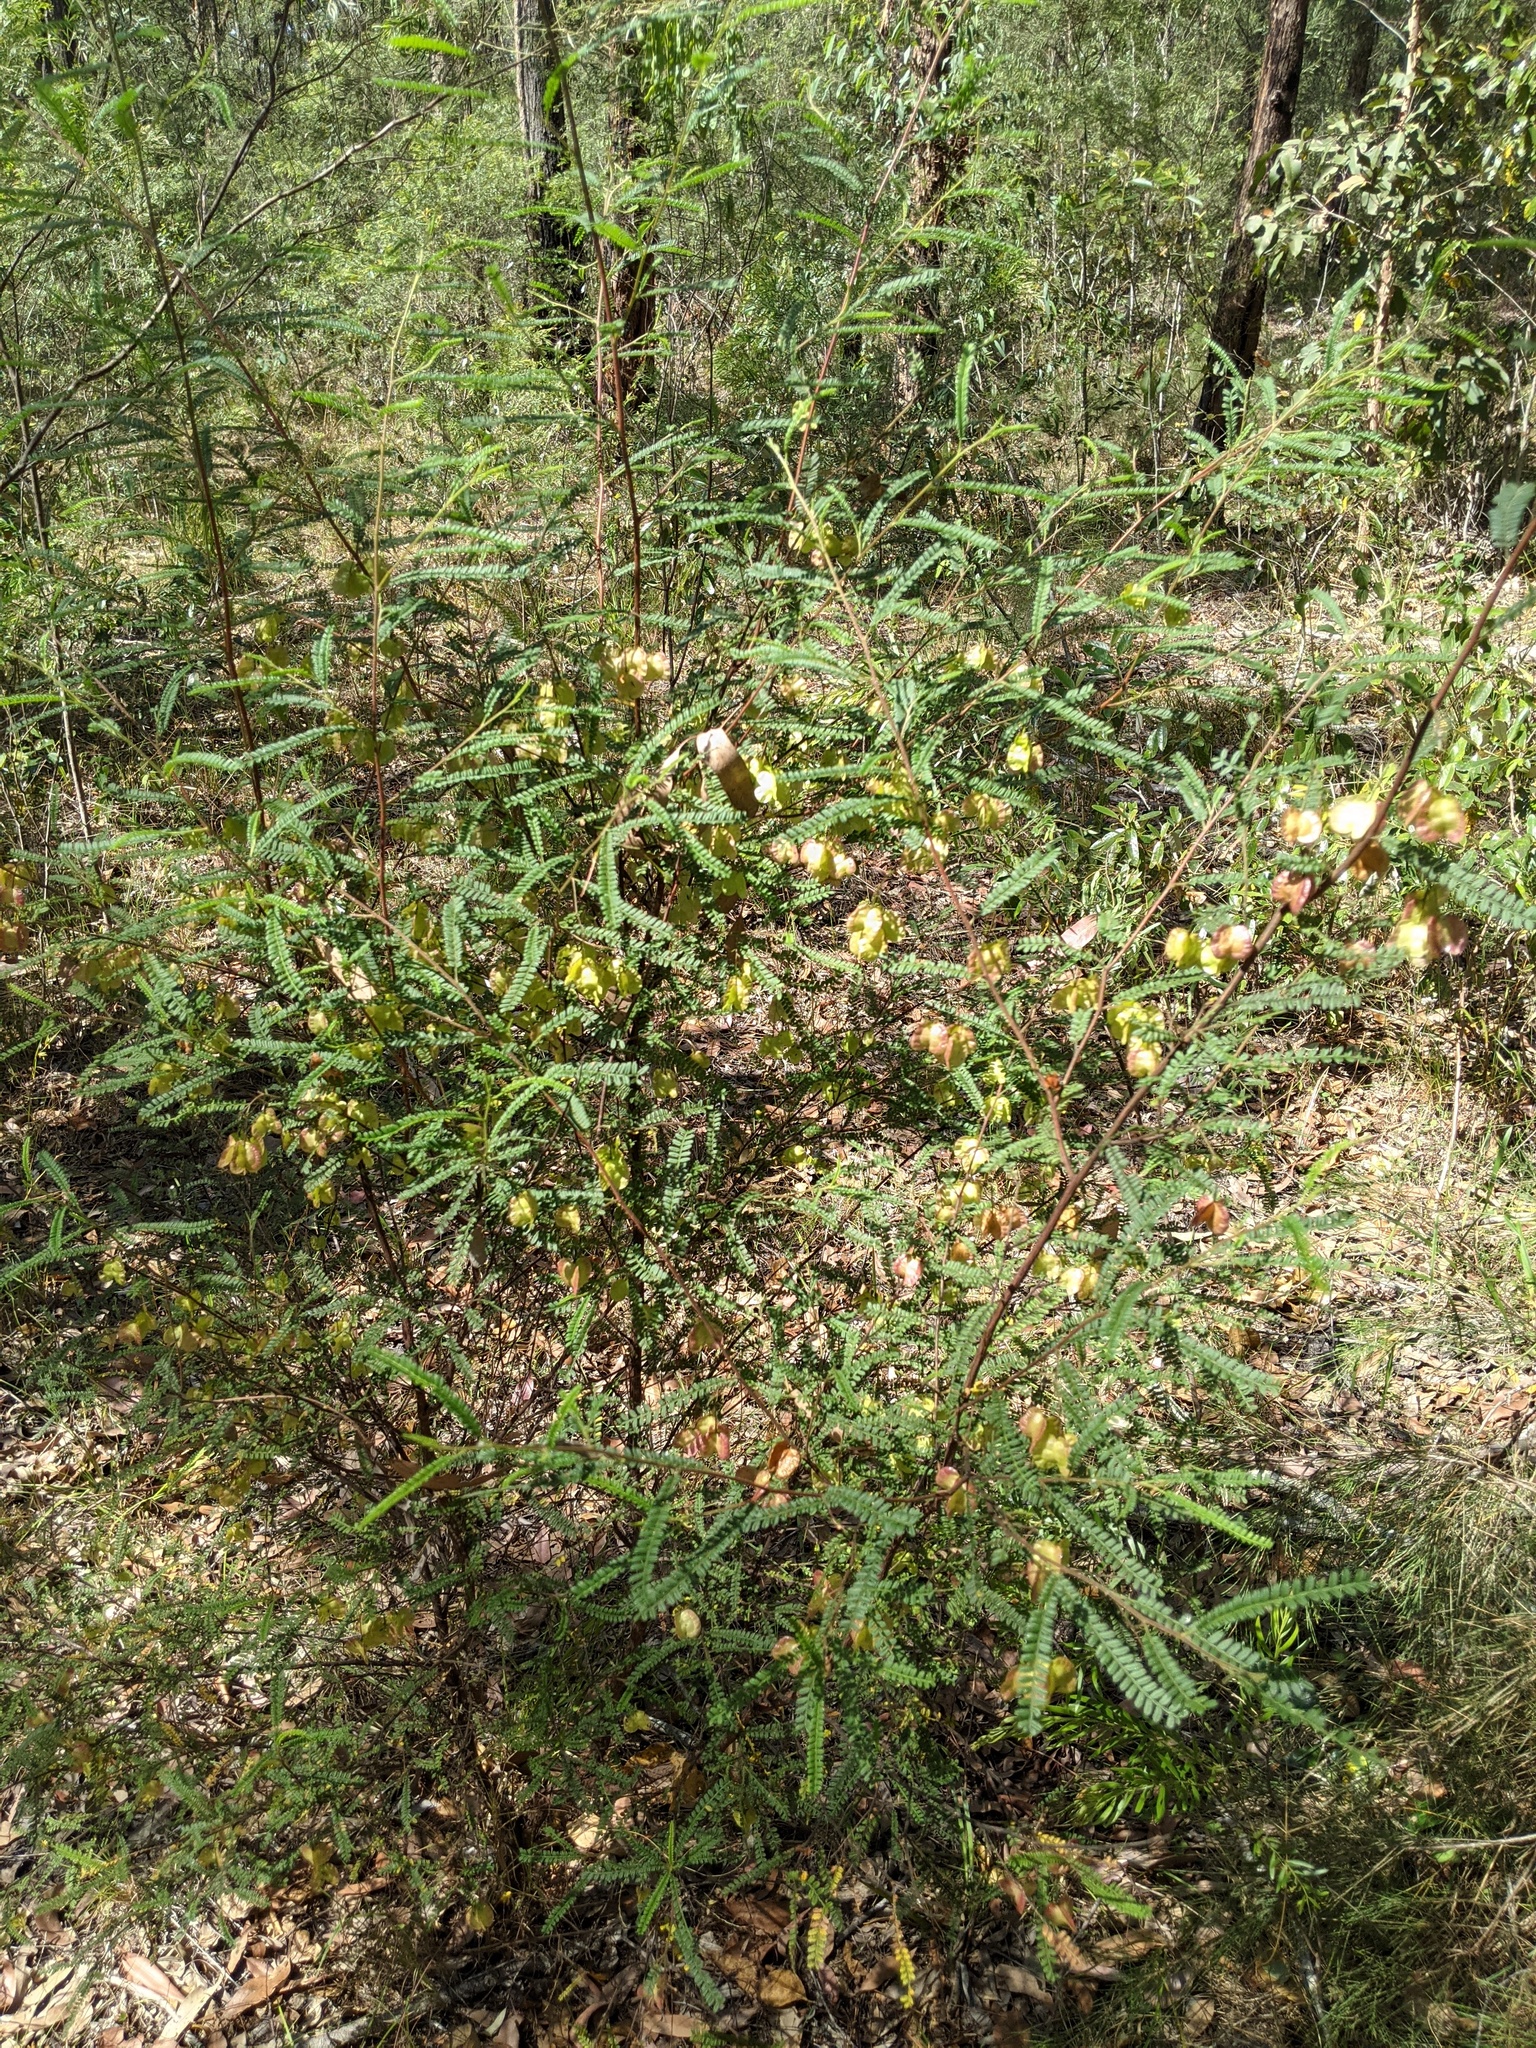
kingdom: Plantae
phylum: Tracheophyta
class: Magnoliopsida
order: Sapindales
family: Sapindaceae
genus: Dodonaea
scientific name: Dodonaea multijuga
